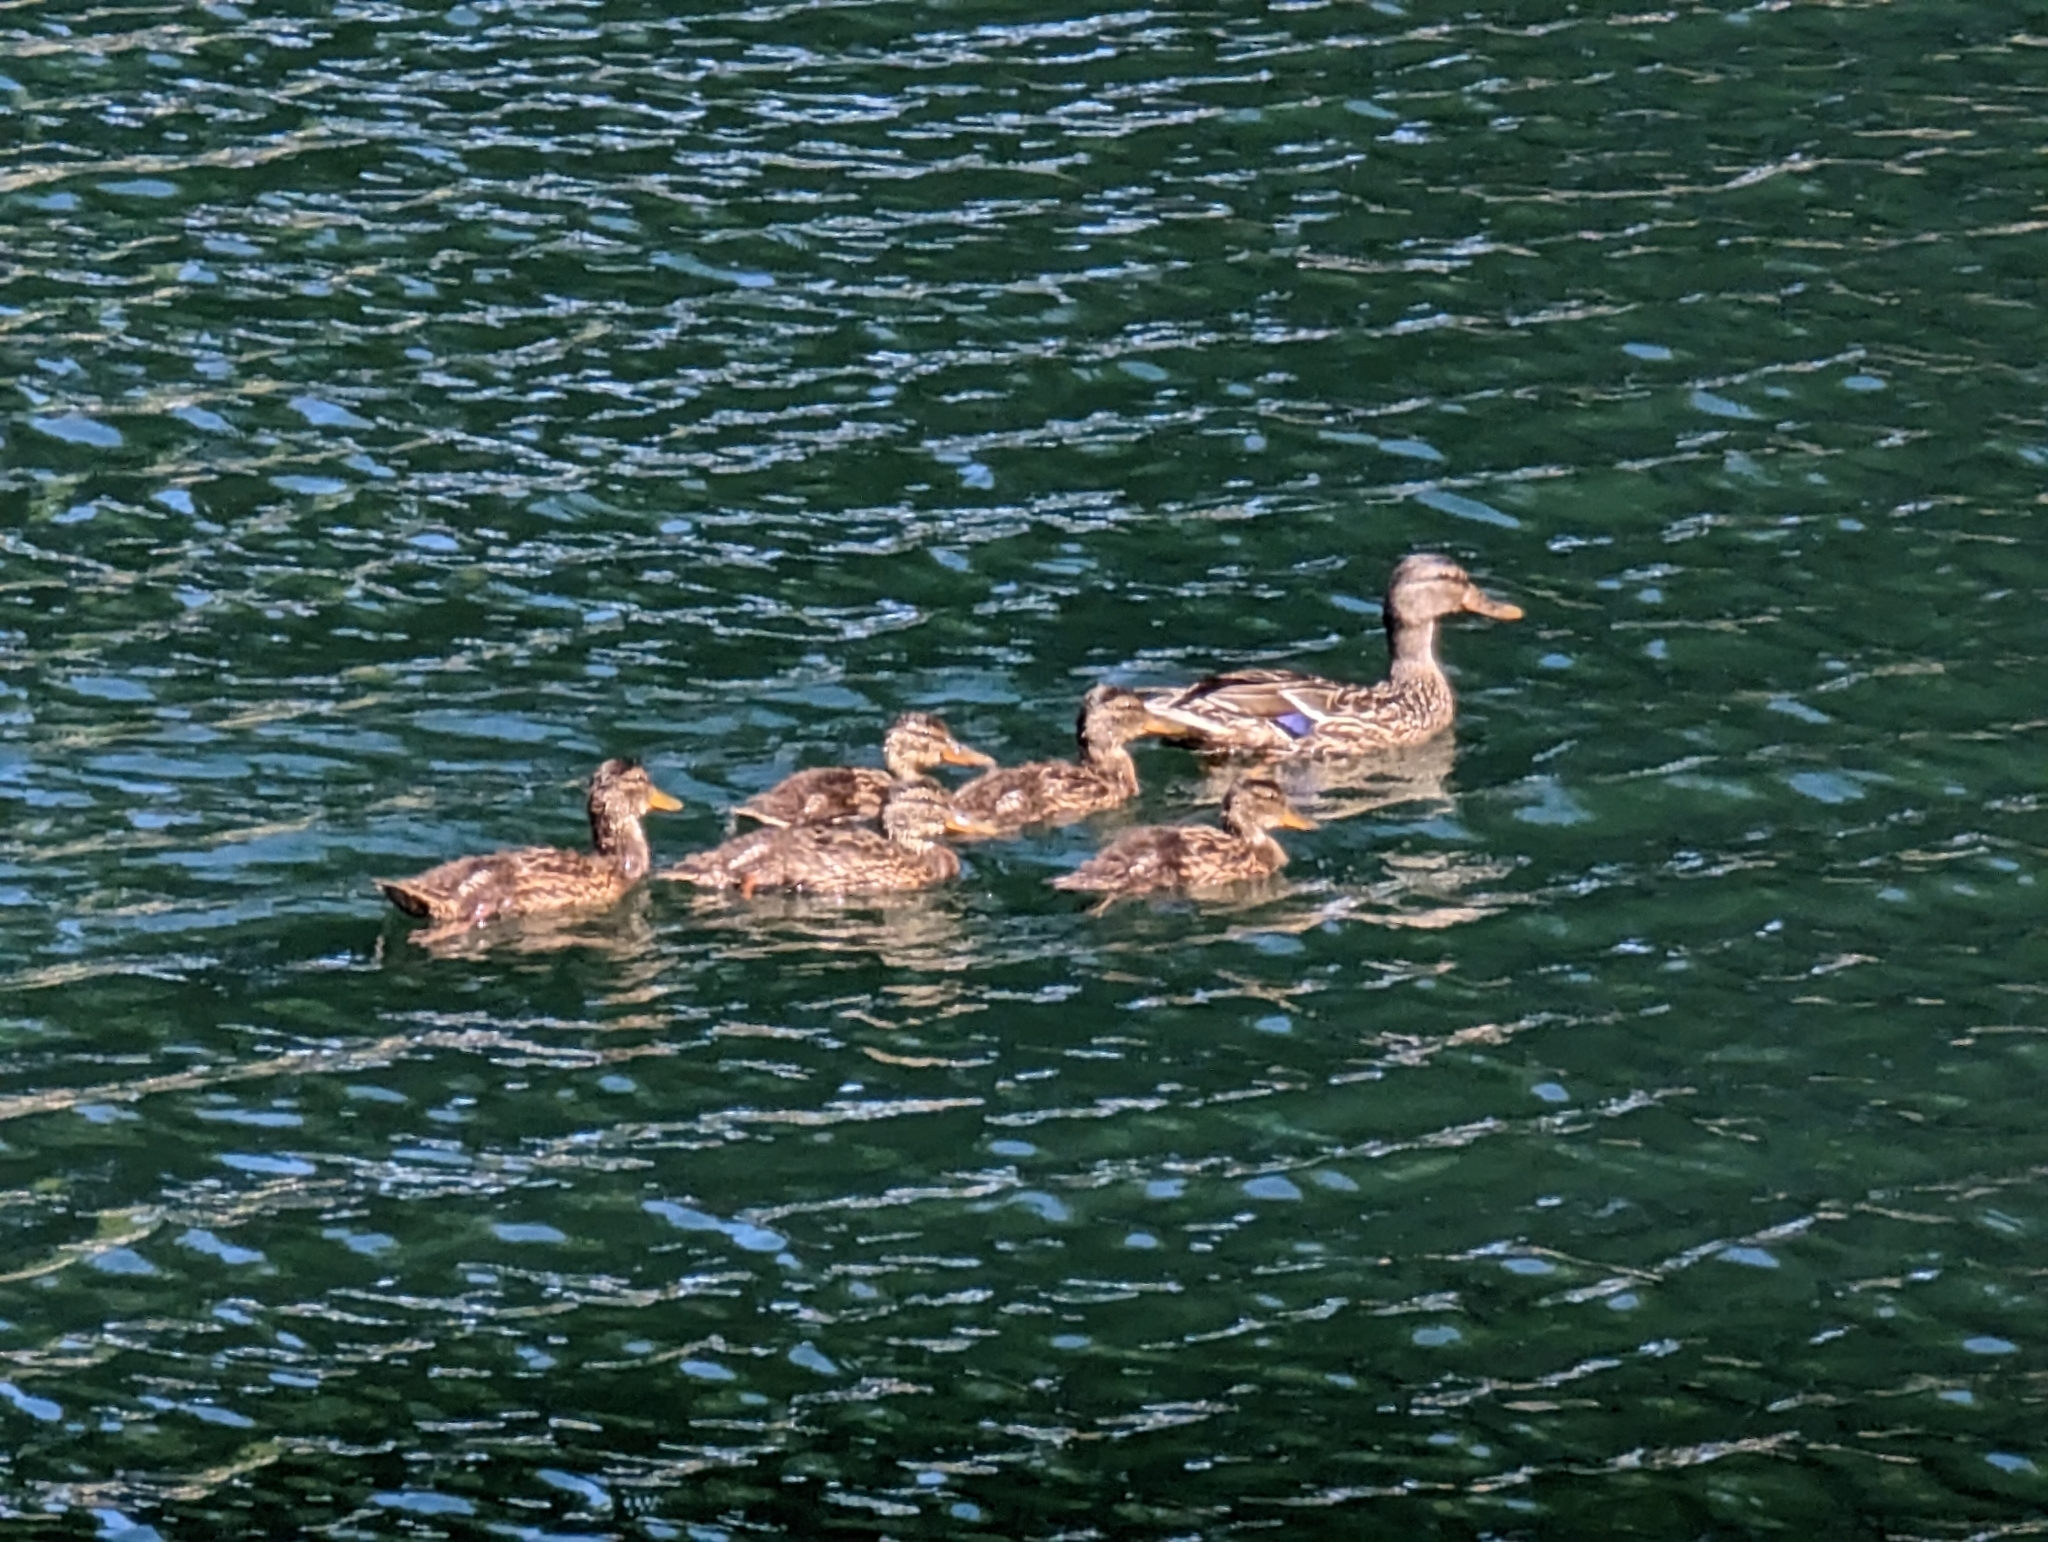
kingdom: Animalia
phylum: Chordata
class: Aves
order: Anseriformes
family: Anatidae
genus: Anas
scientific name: Anas platyrhynchos
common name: Mallard
